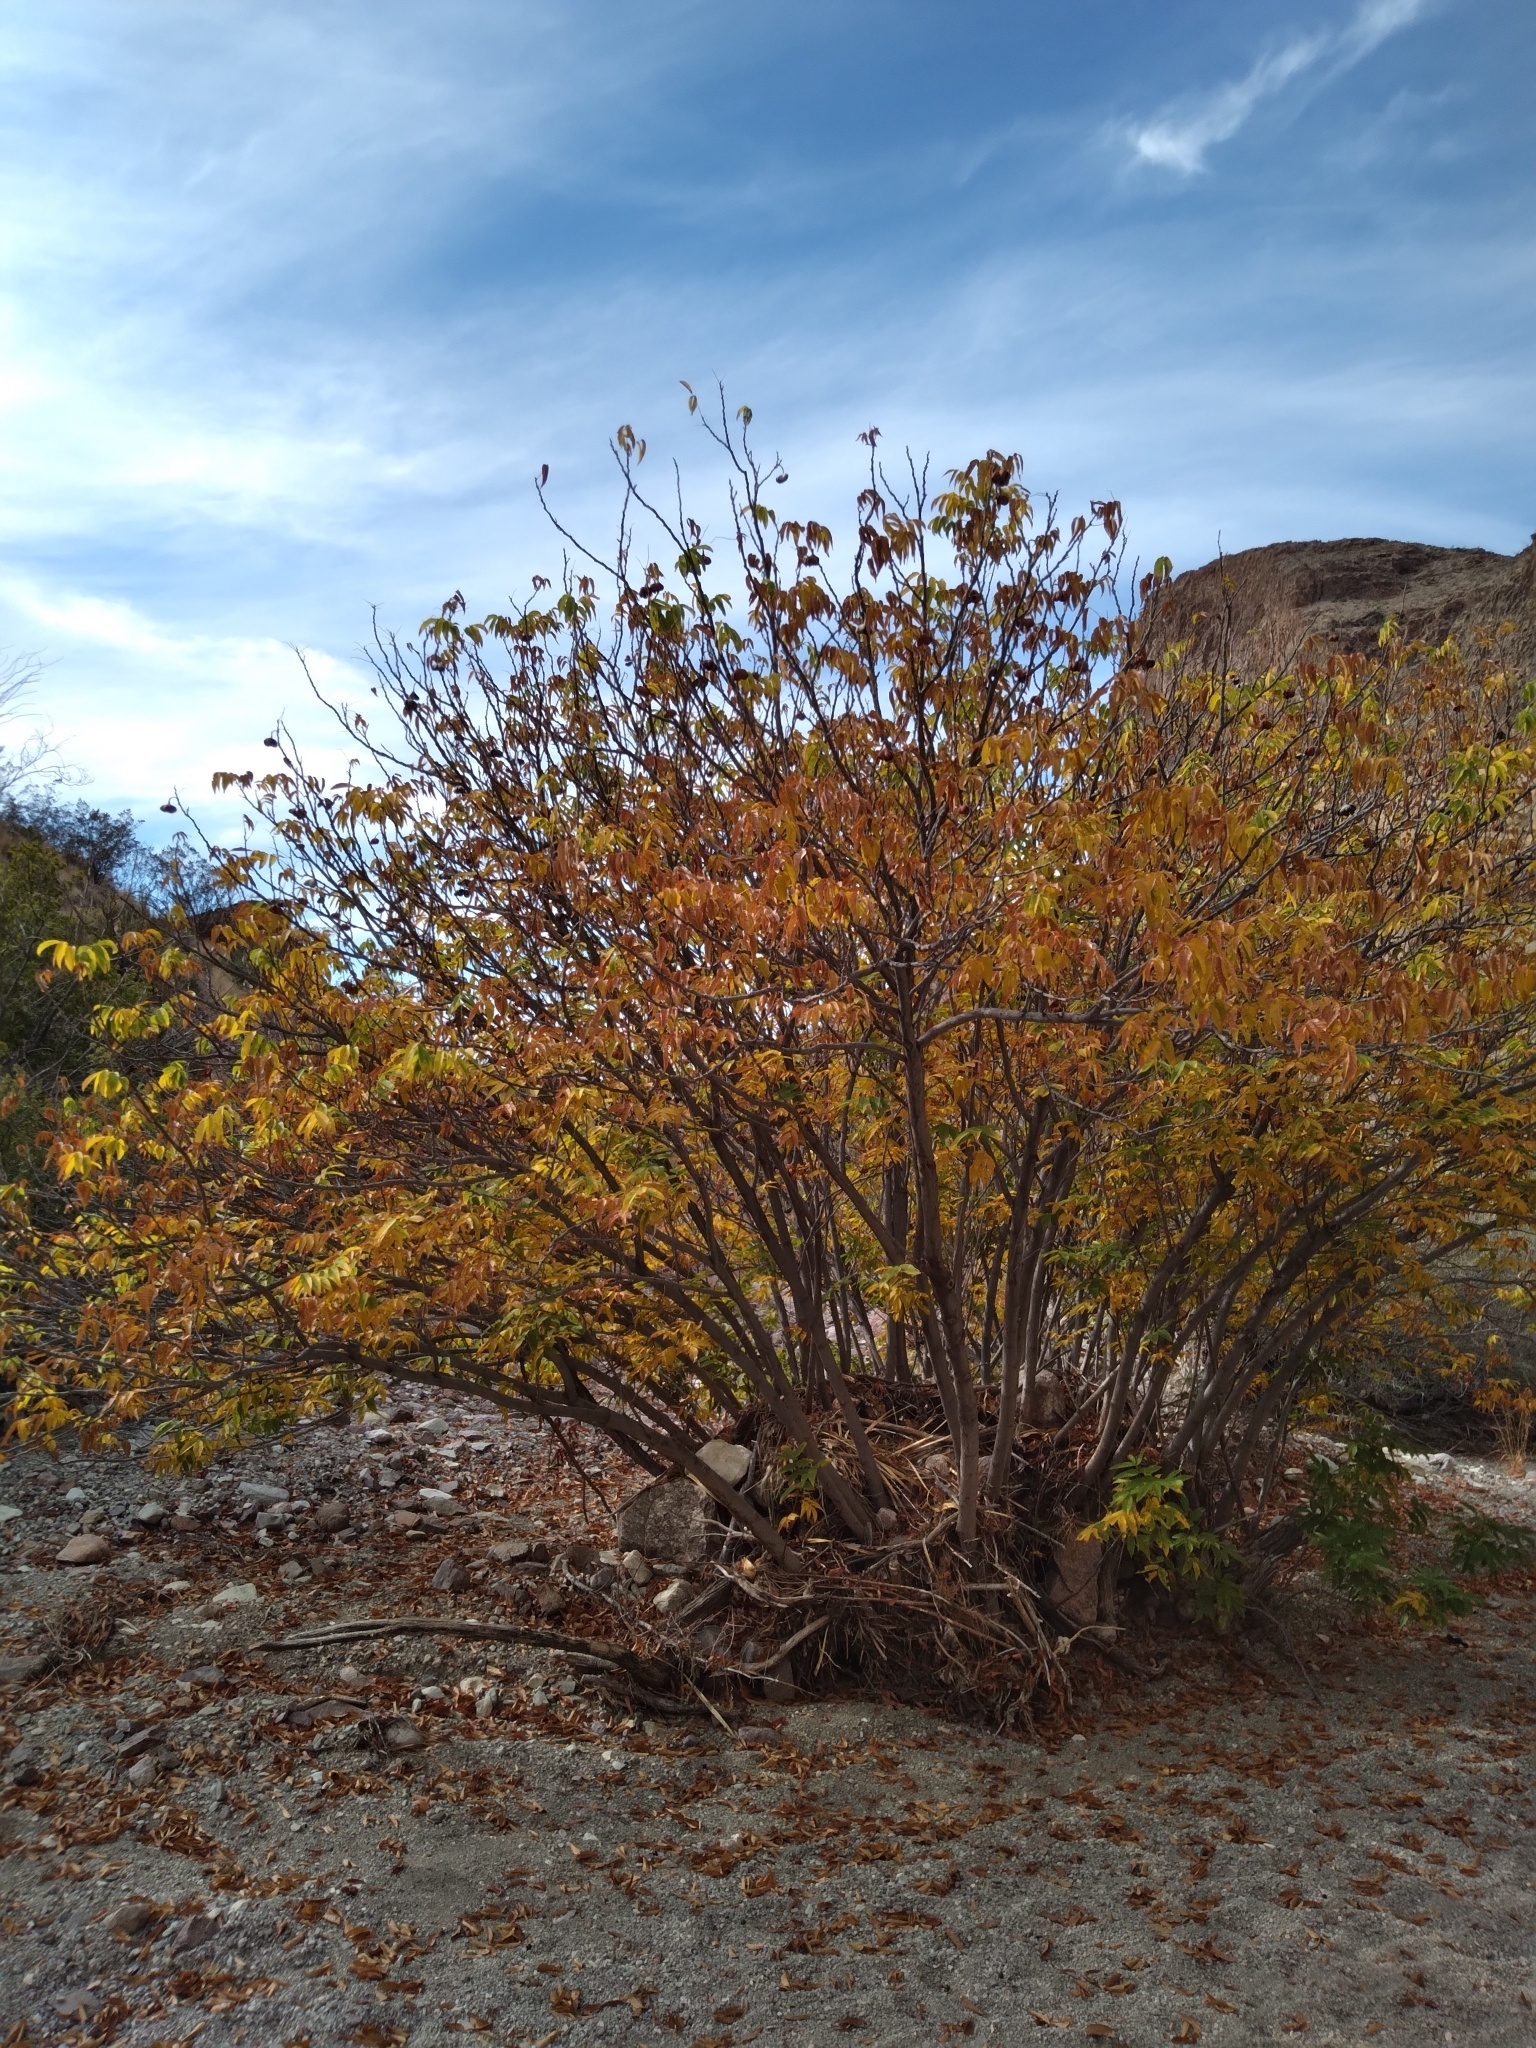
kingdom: Plantae
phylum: Tracheophyta
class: Magnoliopsida
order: Sapindales
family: Sapindaceae
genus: Ungnadia
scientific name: Ungnadia speciosa
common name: Texas-buckeye
